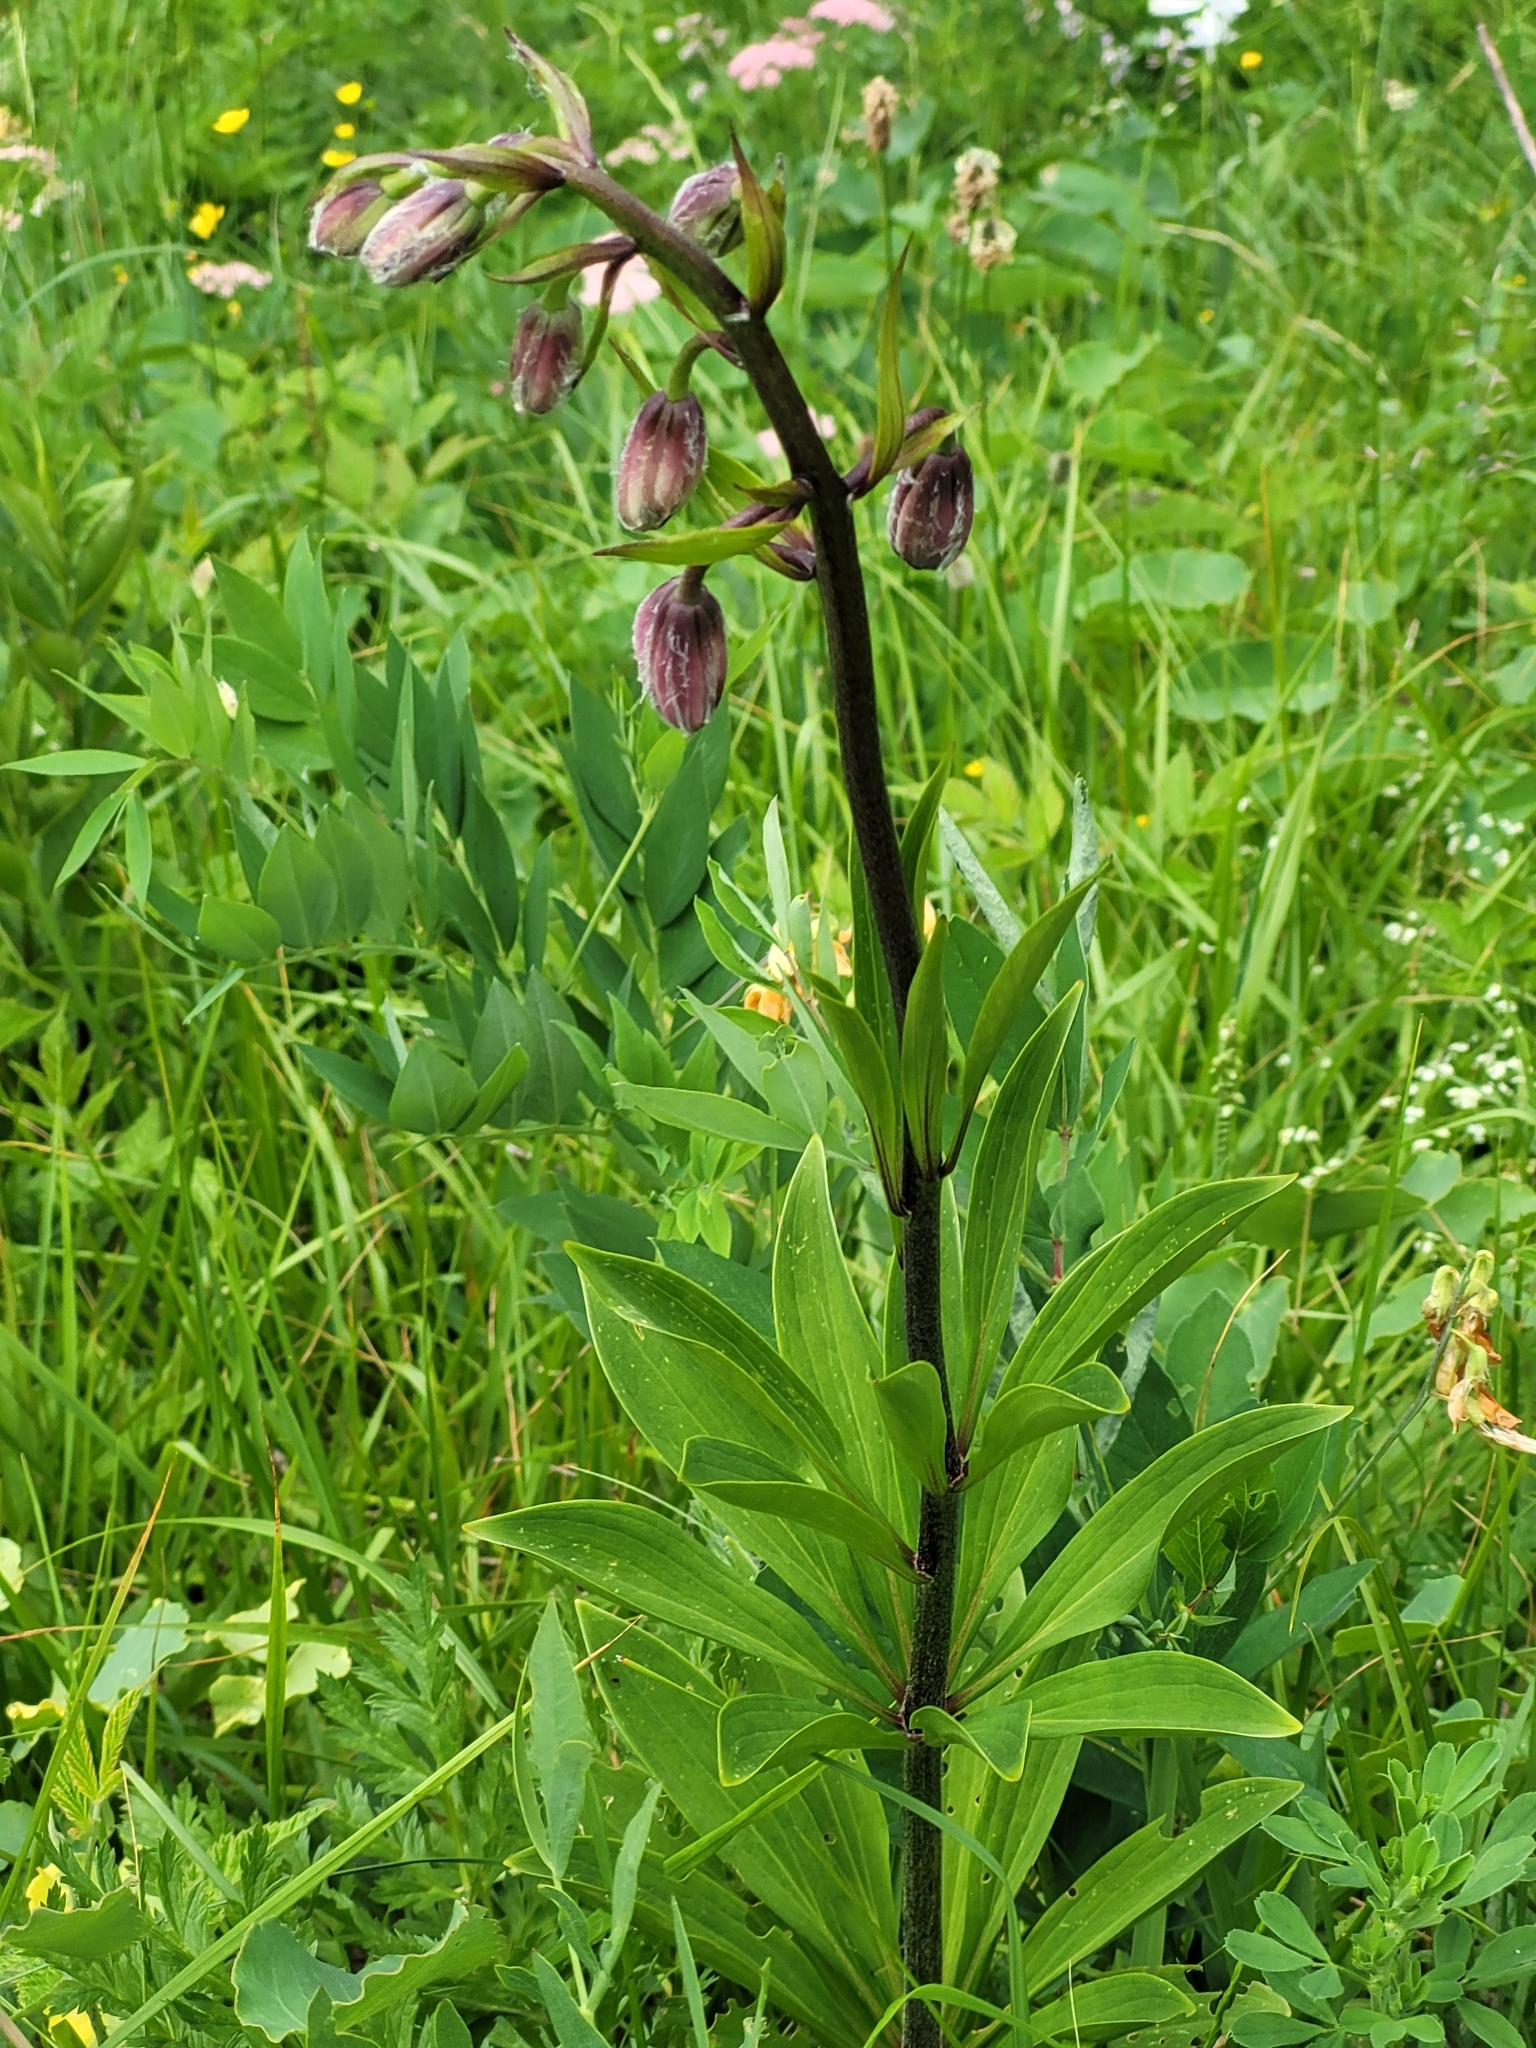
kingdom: Plantae
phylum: Tracheophyta
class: Liliopsida
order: Liliales
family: Liliaceae
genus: Lilium
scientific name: Lilium martagon
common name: Martagon lily
